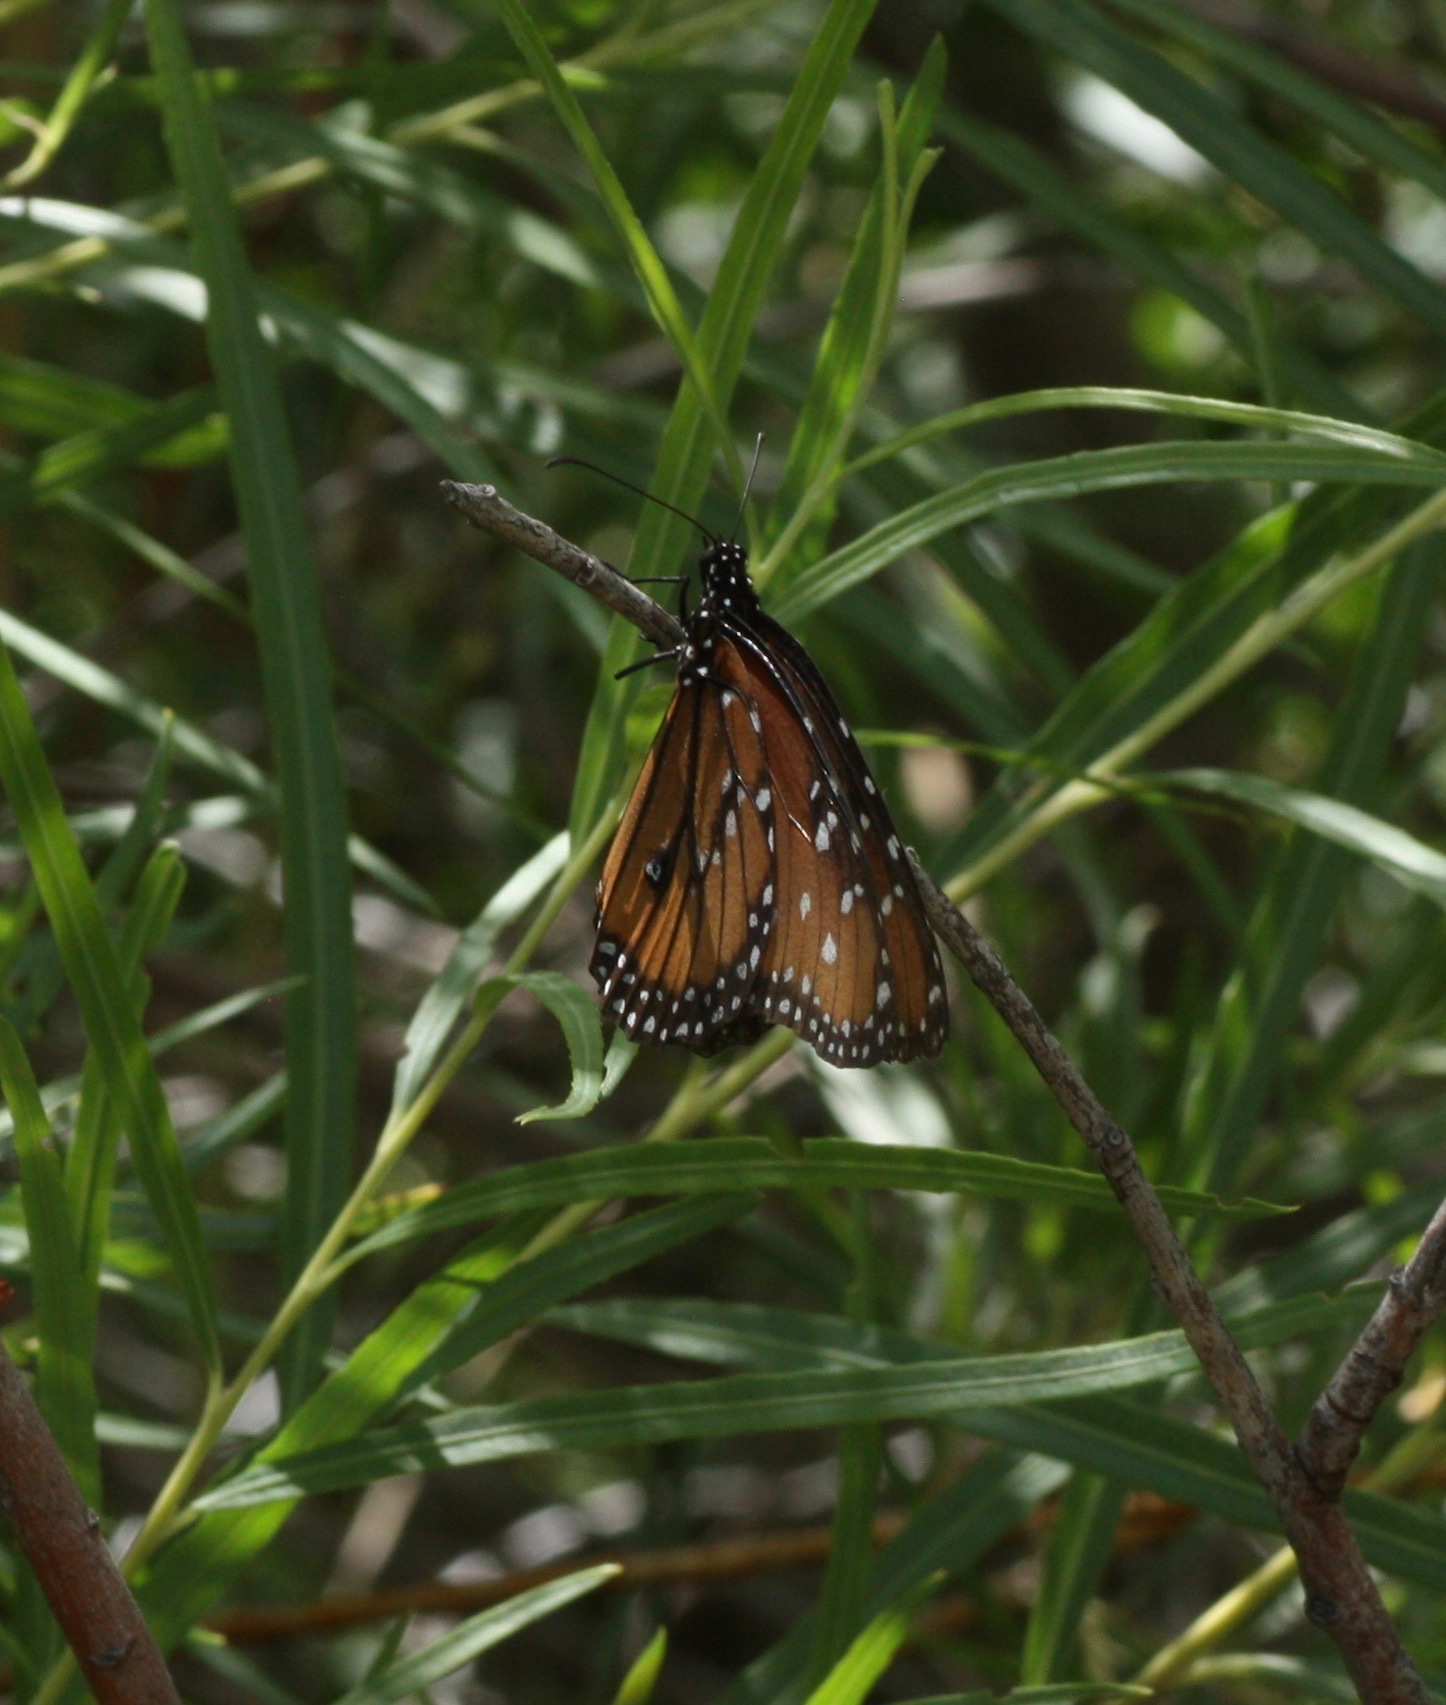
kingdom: Animalia
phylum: Arthropoda
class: Insecta
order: Lepidoptera
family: Nymphalidae
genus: Danaus
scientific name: Danaus gilippus
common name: Queen
